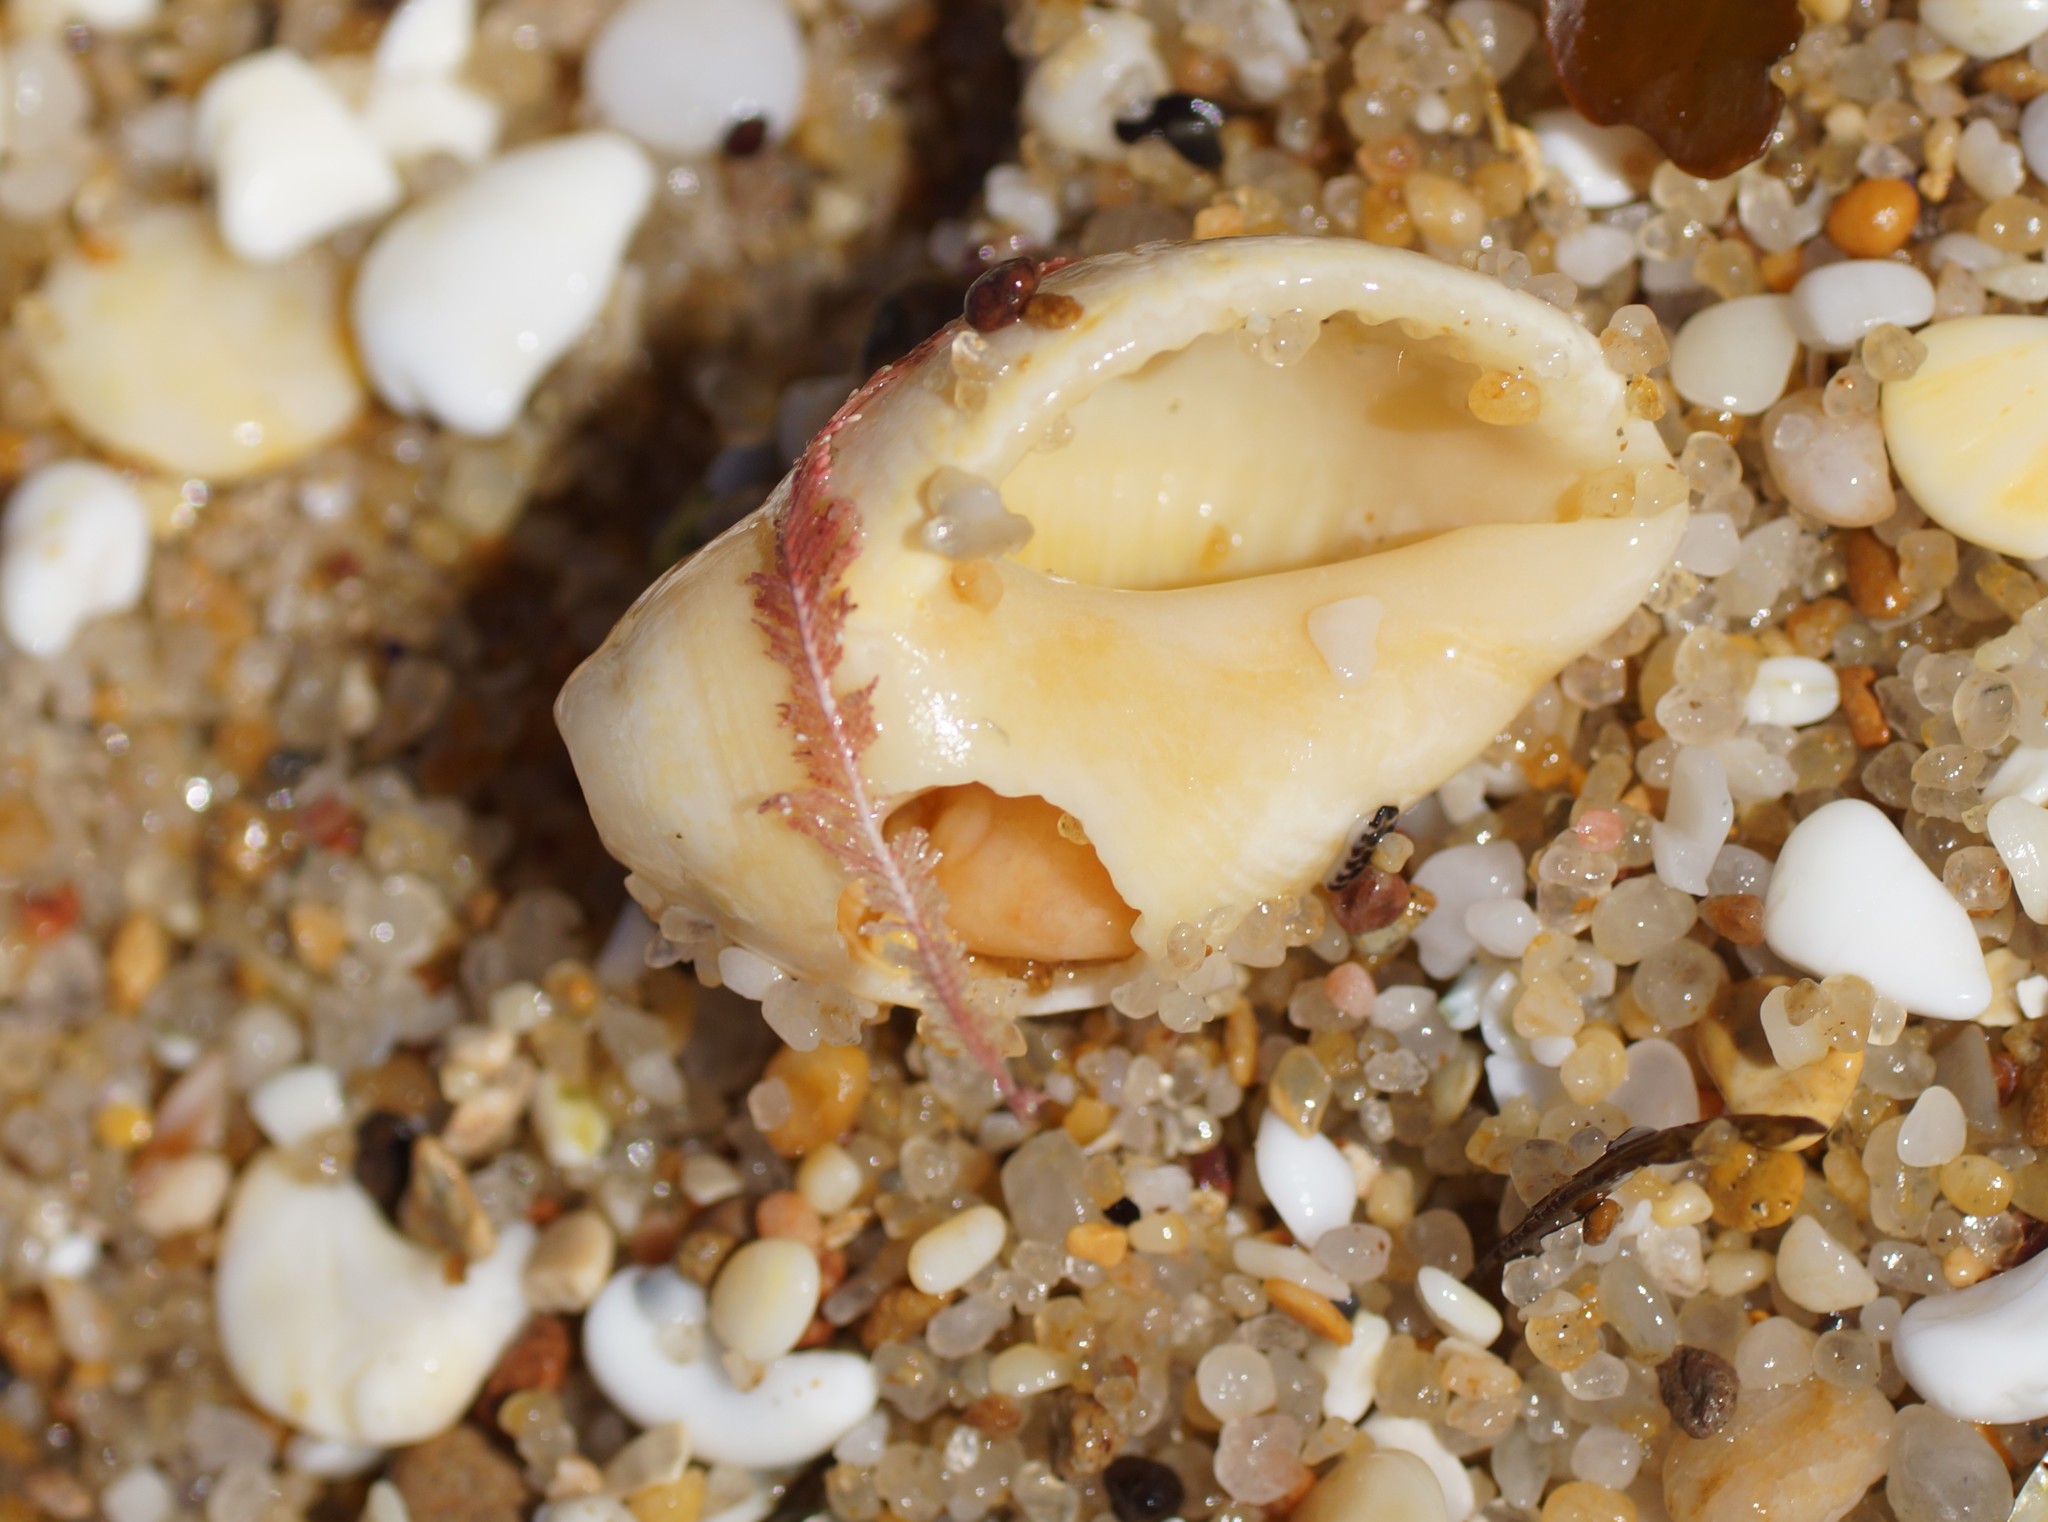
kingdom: Animalia
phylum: Mollusca
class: Gastropoda
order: Neogastropoda
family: Muricidae
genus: Dicathais
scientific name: Dicathais orbita
